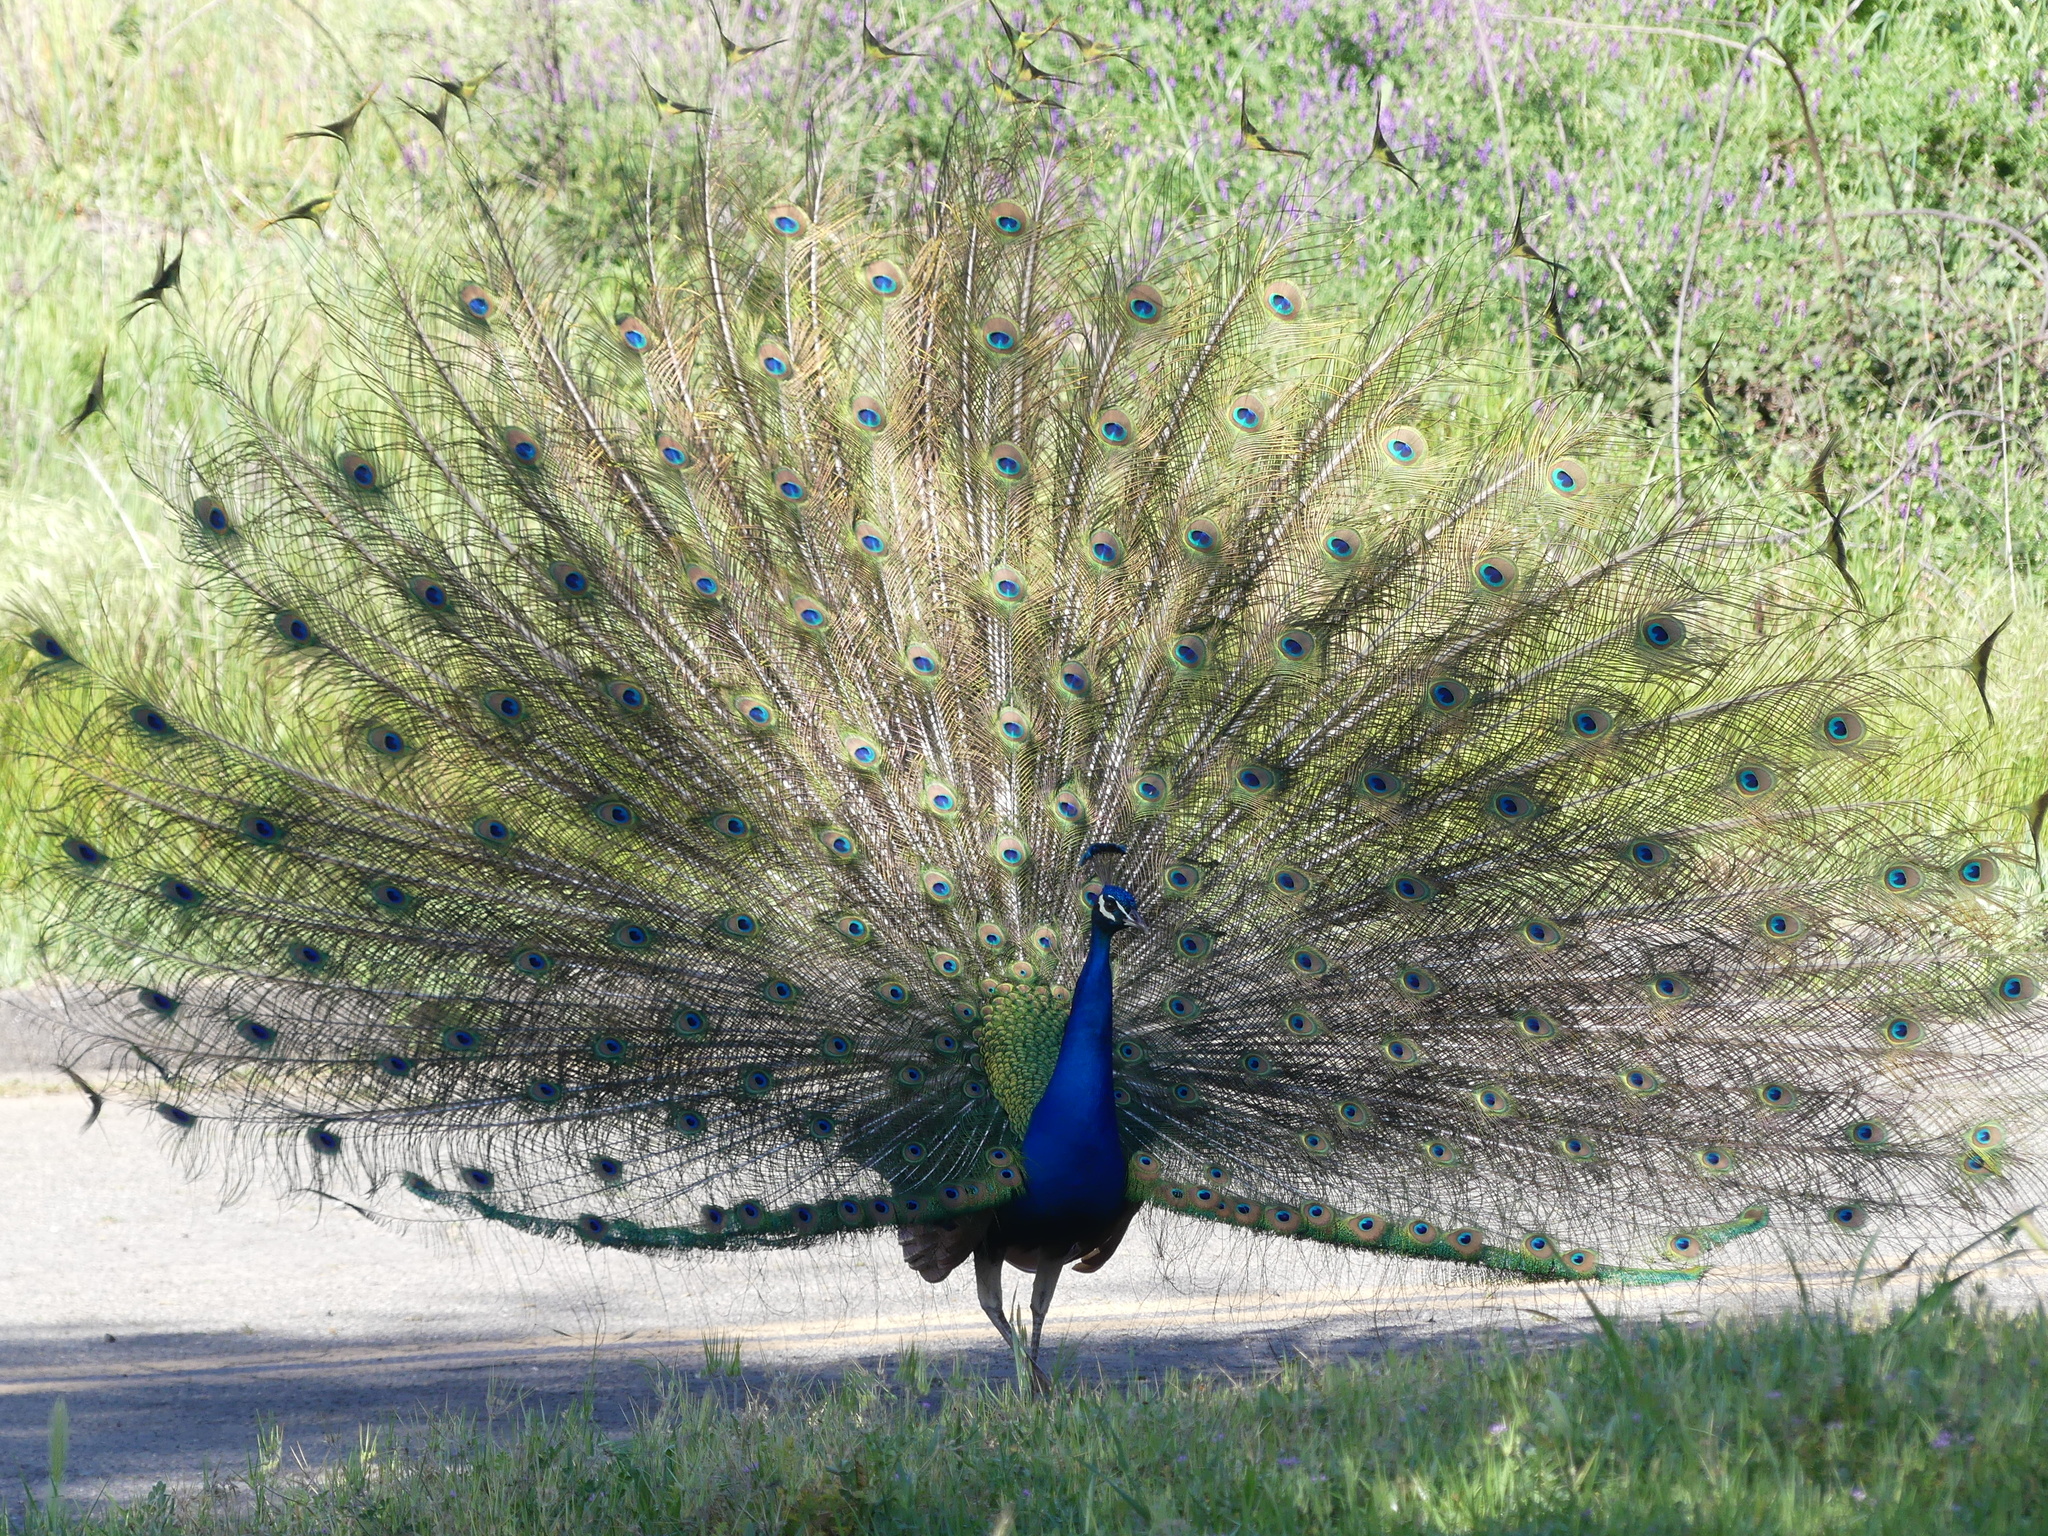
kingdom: Animalia
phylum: Chordata
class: Aves
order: Galliformes
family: Phasianidae
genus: Pavo
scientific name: Pavo cristatus
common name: Indian peafowl
